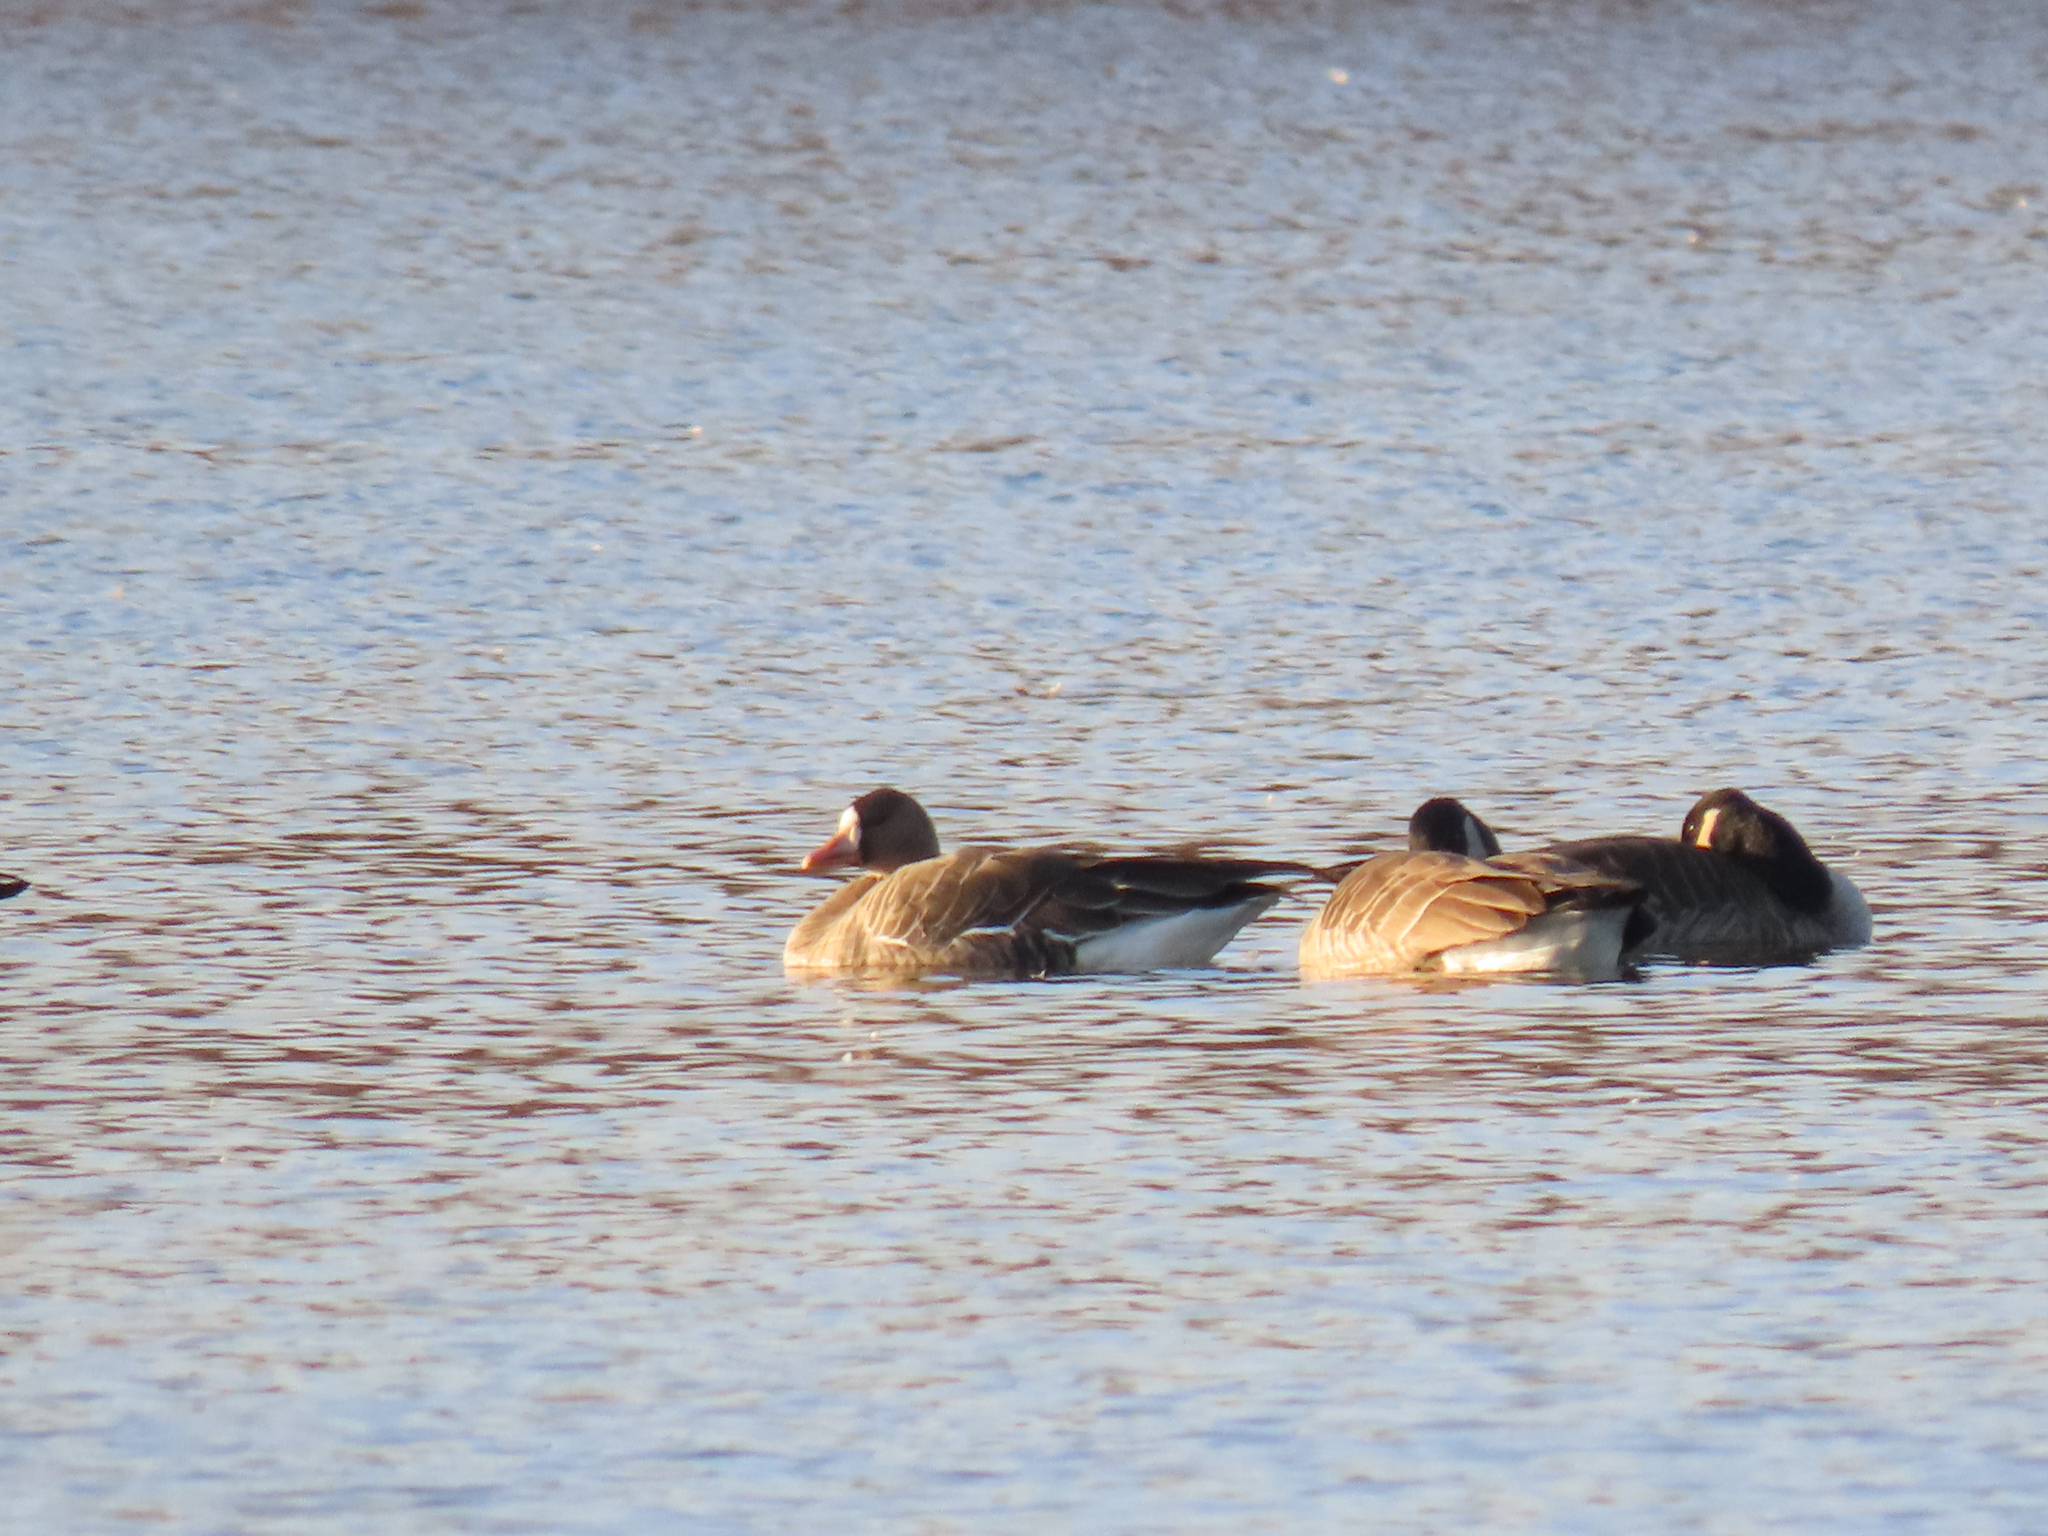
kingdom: Animalia
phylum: Chordata
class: Aves
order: Anseriformes
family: Anatidae
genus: Anser
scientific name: Anser albifrons
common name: Greater white-fronted goose
